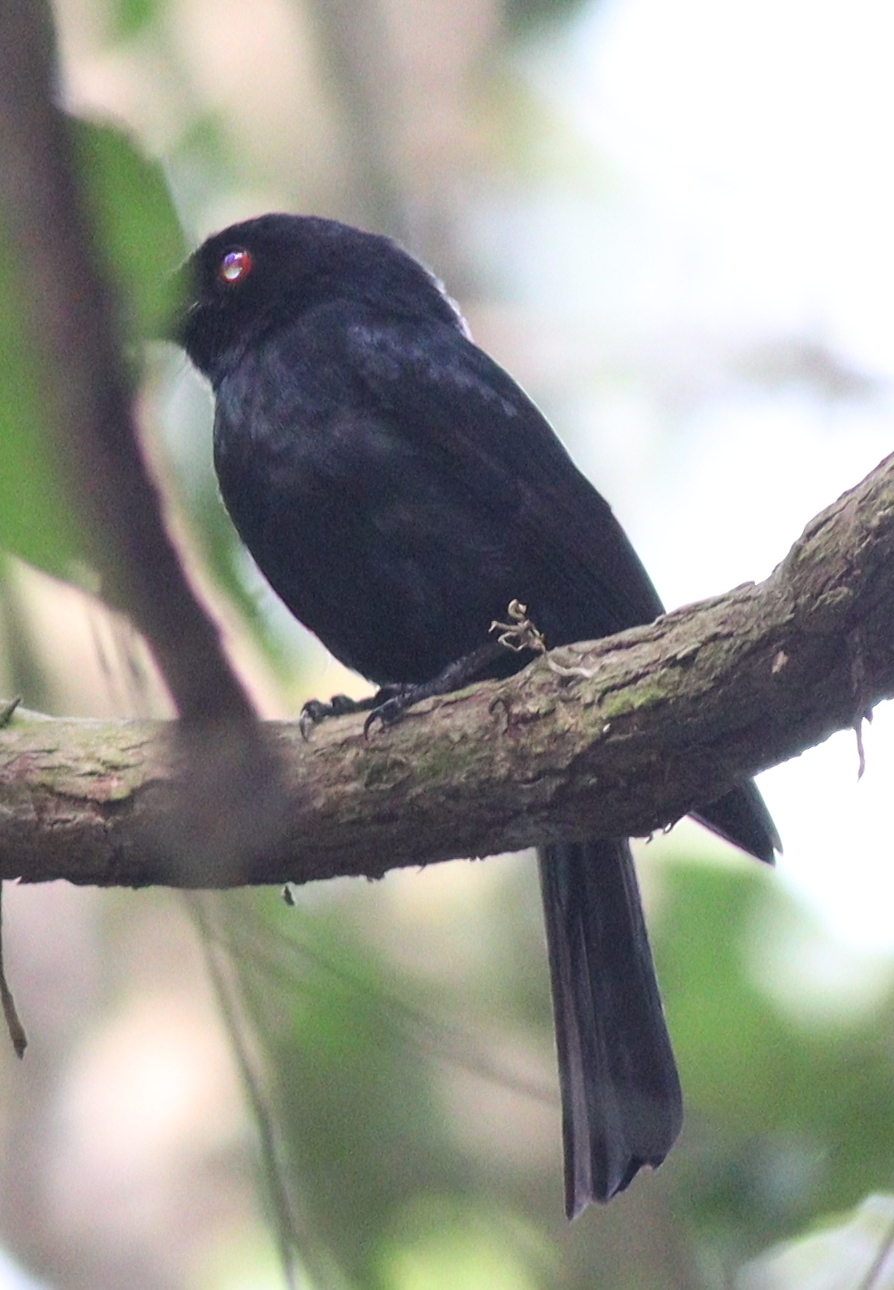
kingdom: Animalia
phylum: Chordata
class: Aves
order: Passeriformes
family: Dicruridae
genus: Dicrurus
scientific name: Dicrurus sharpei
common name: Sharpe's drongo
